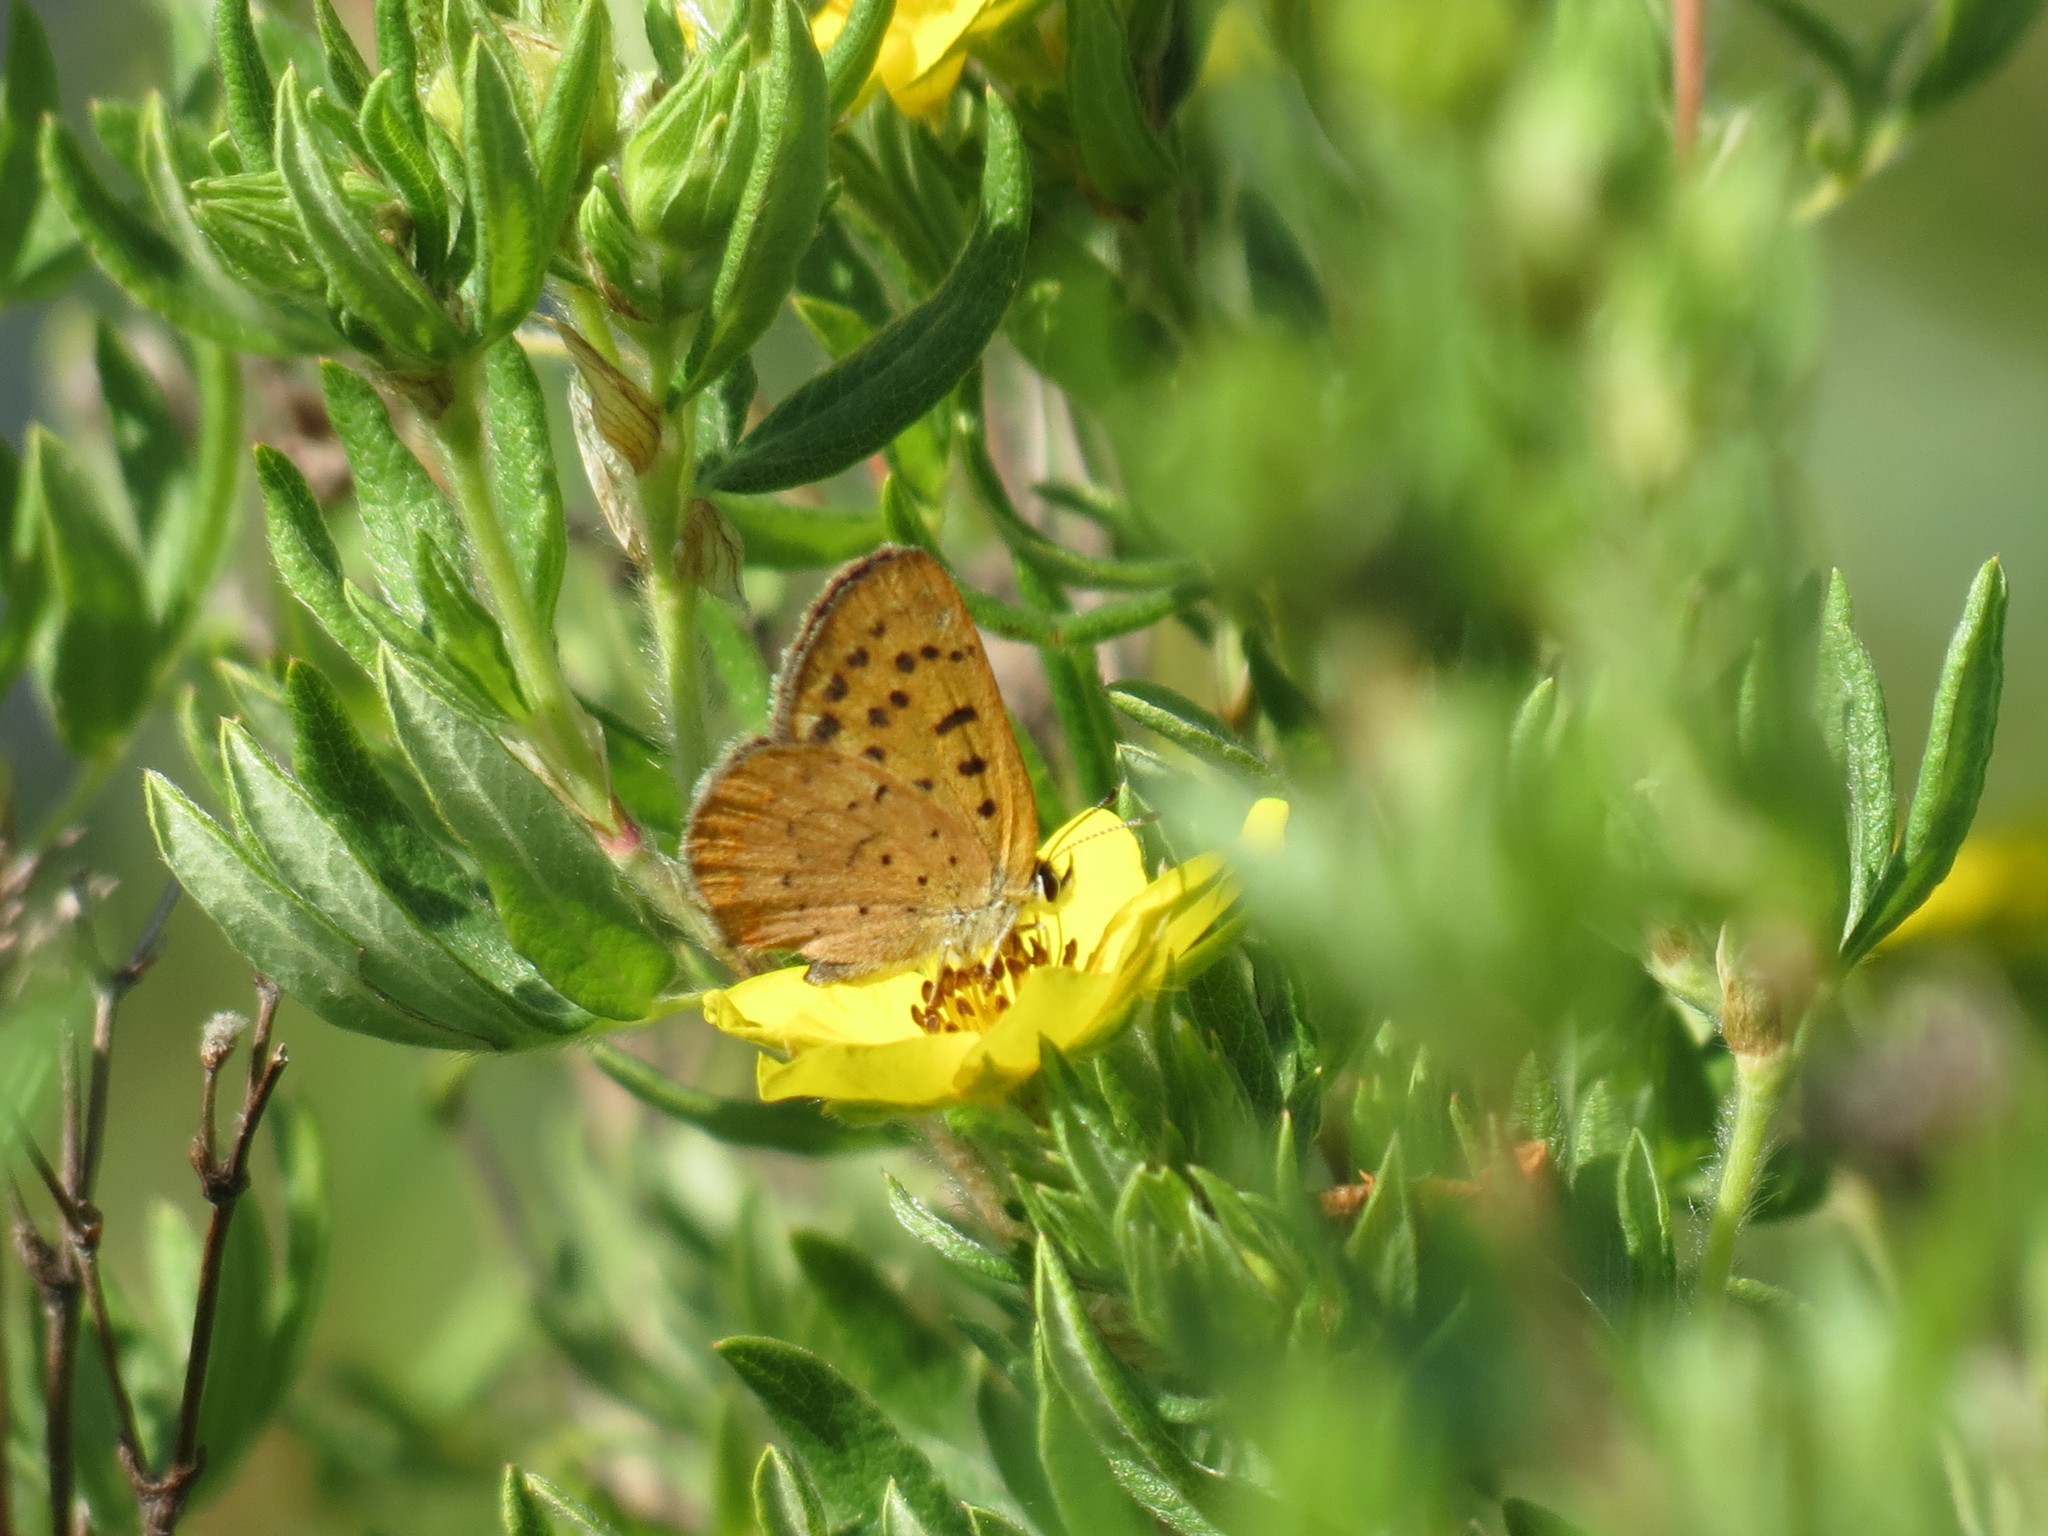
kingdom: Animalia
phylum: Arthropoda
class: Insecta
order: Lepidoptera
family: Lycaenidae
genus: Tharsalea
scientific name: Tharsalea dorcas
